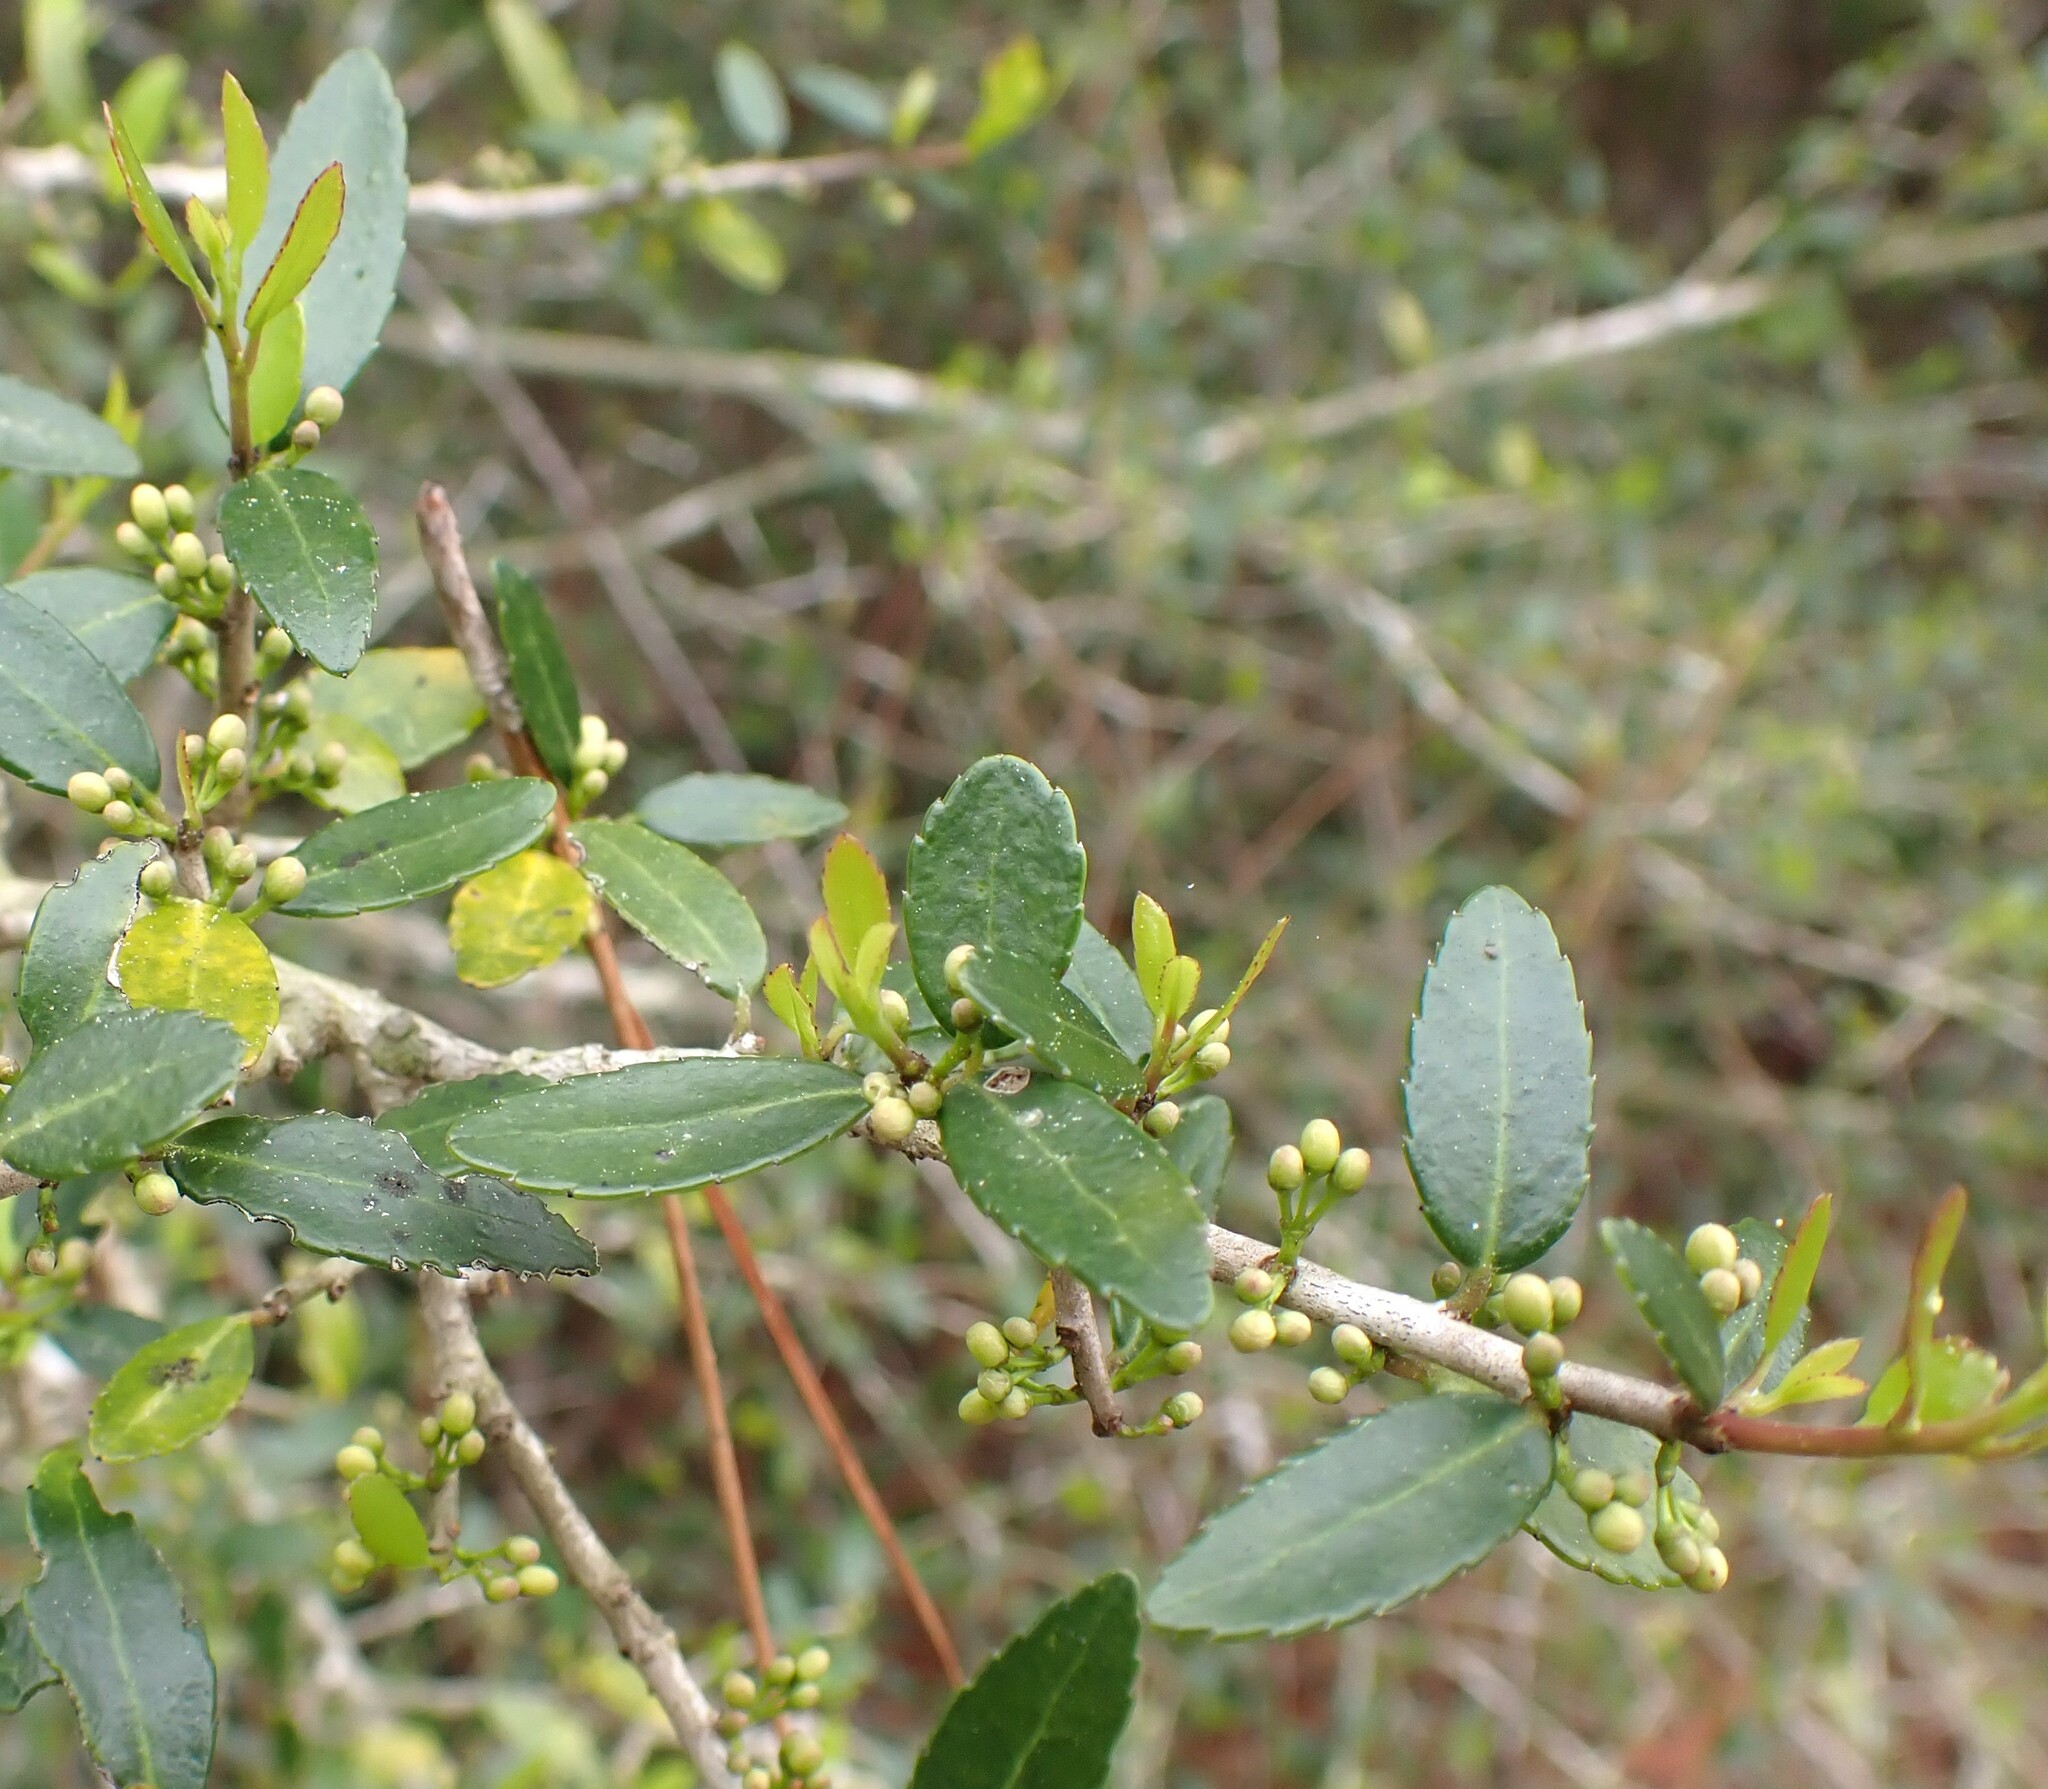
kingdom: Plantae
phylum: Tracheophyta
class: Magnoliopsida
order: Aquifoliales
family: Aquifoliaceae
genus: Ilex
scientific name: Ilex vomitoria
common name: Yaupon holly
